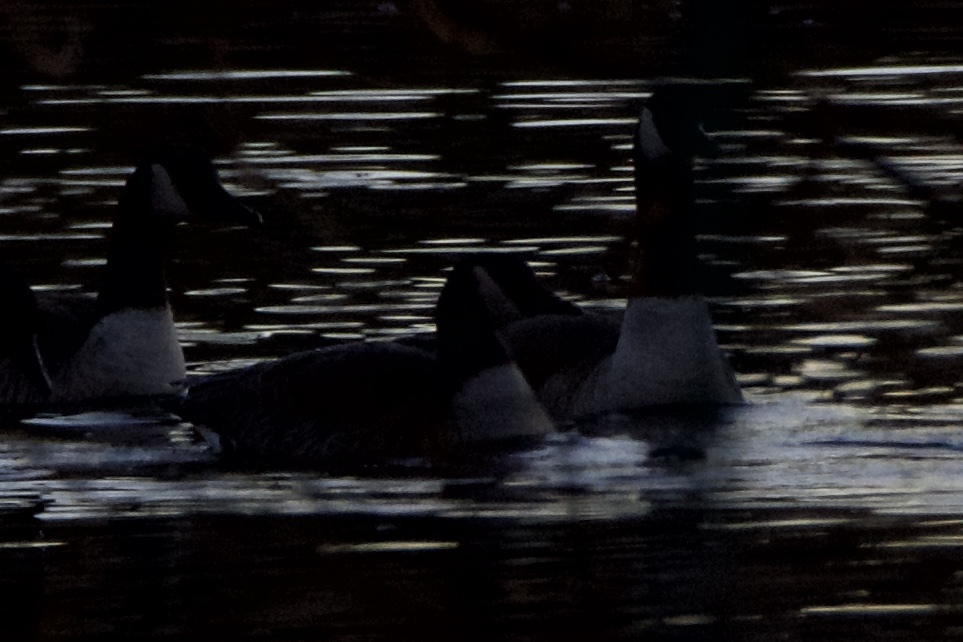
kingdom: Animalia
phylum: Chordata
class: Aves
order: Anseriformes
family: Anatidae
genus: Branta
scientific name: Branta canadensis
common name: Canada goose
